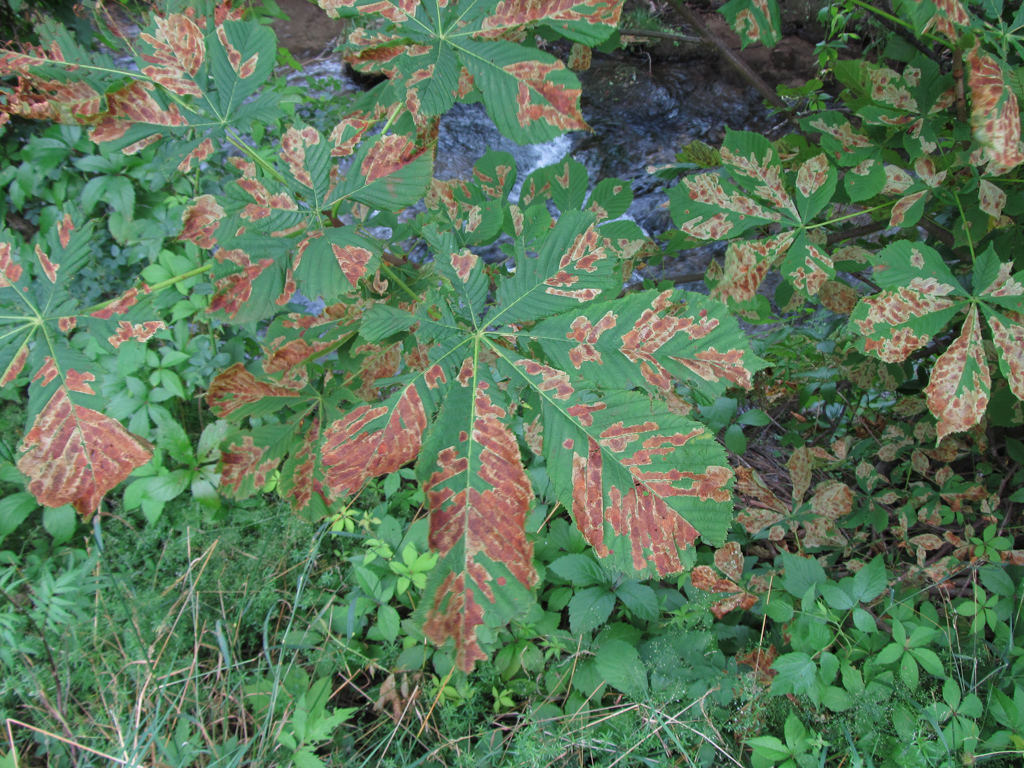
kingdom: Animalia
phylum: Arthropoda
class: Insecta
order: Lepidoptera
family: Gracillariidae
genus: Cameraria
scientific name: Cameraria ohridella
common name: Horse-chestnut leaf-miner
